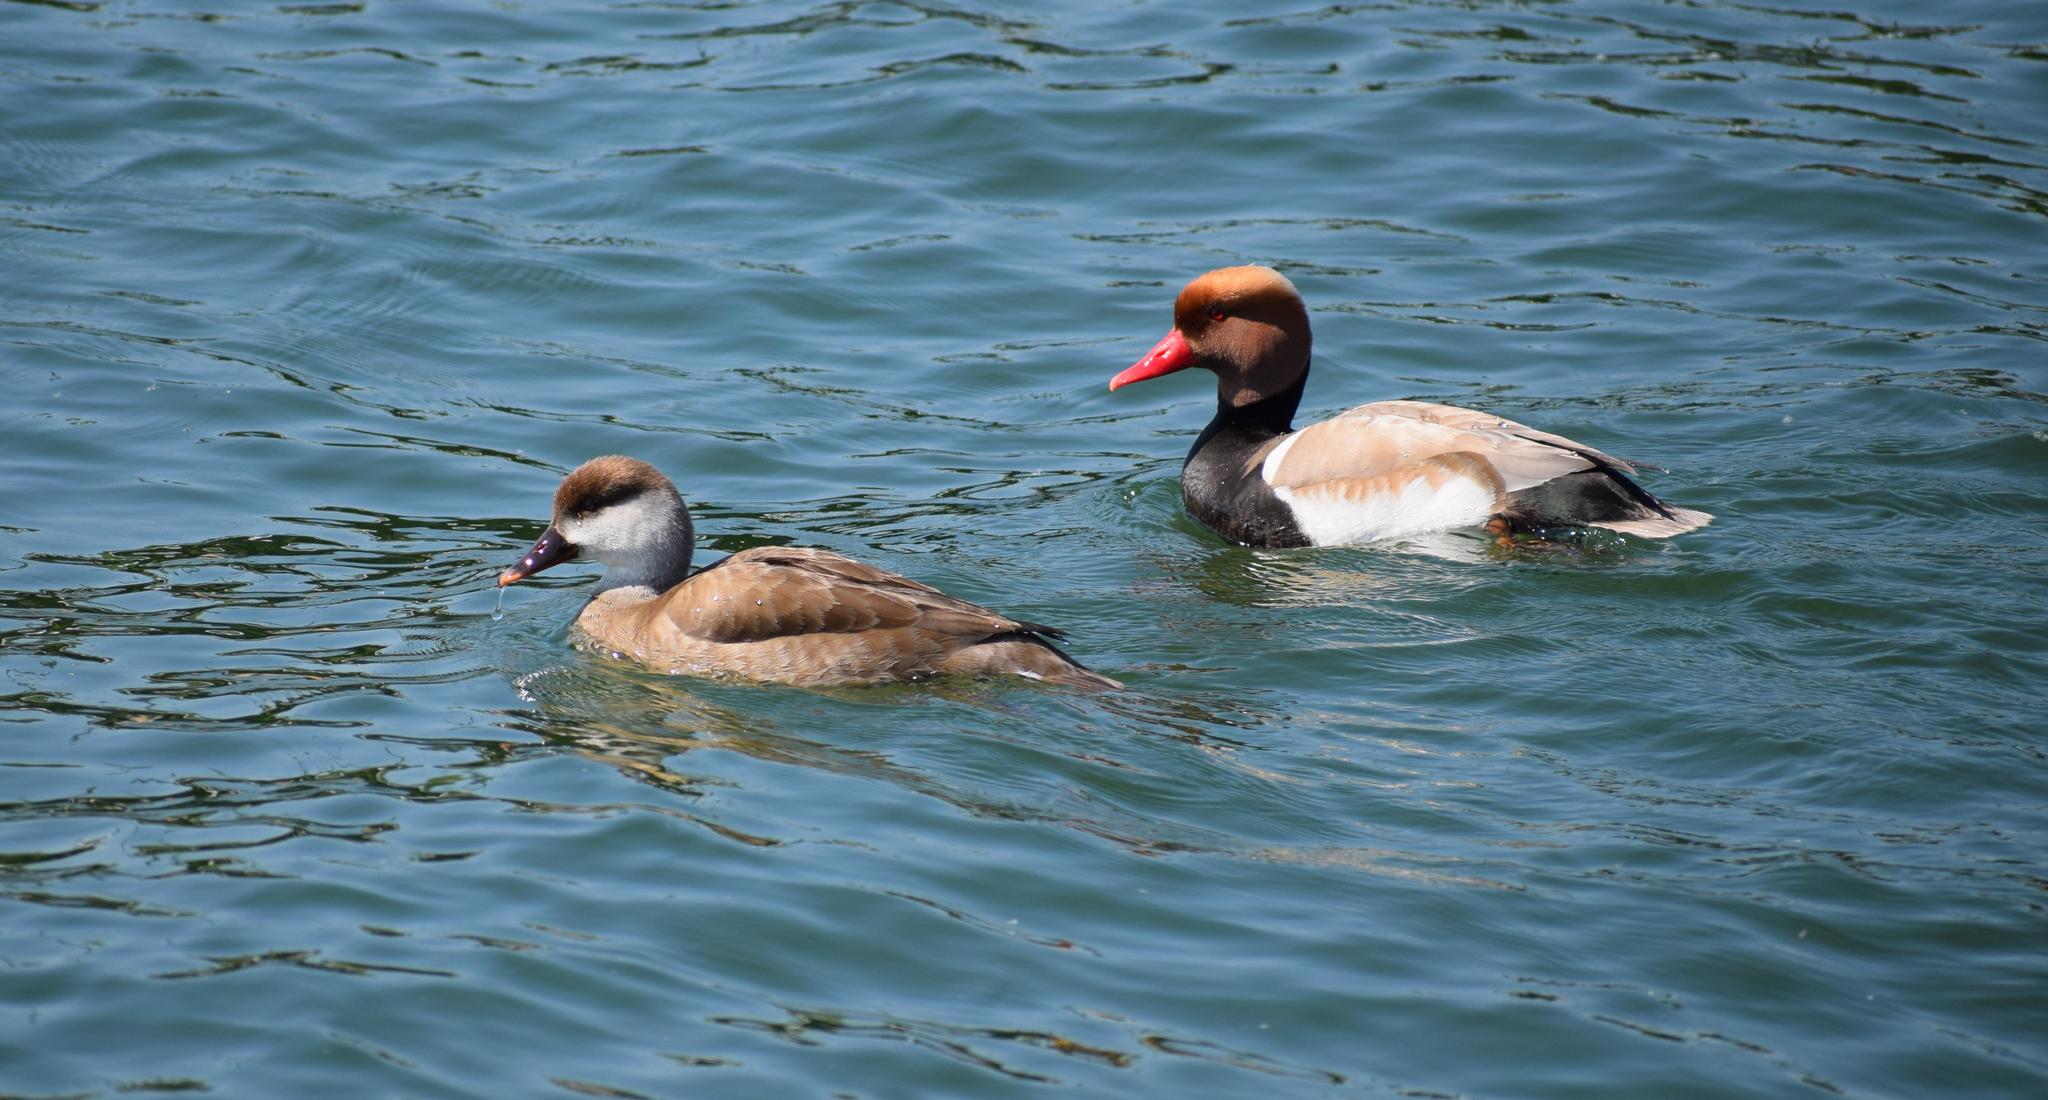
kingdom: Animalia
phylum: Chordata
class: Aves
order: Anseriformes
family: Anatidae
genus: Netta
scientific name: Netta rufina
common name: Red-crested pochard
